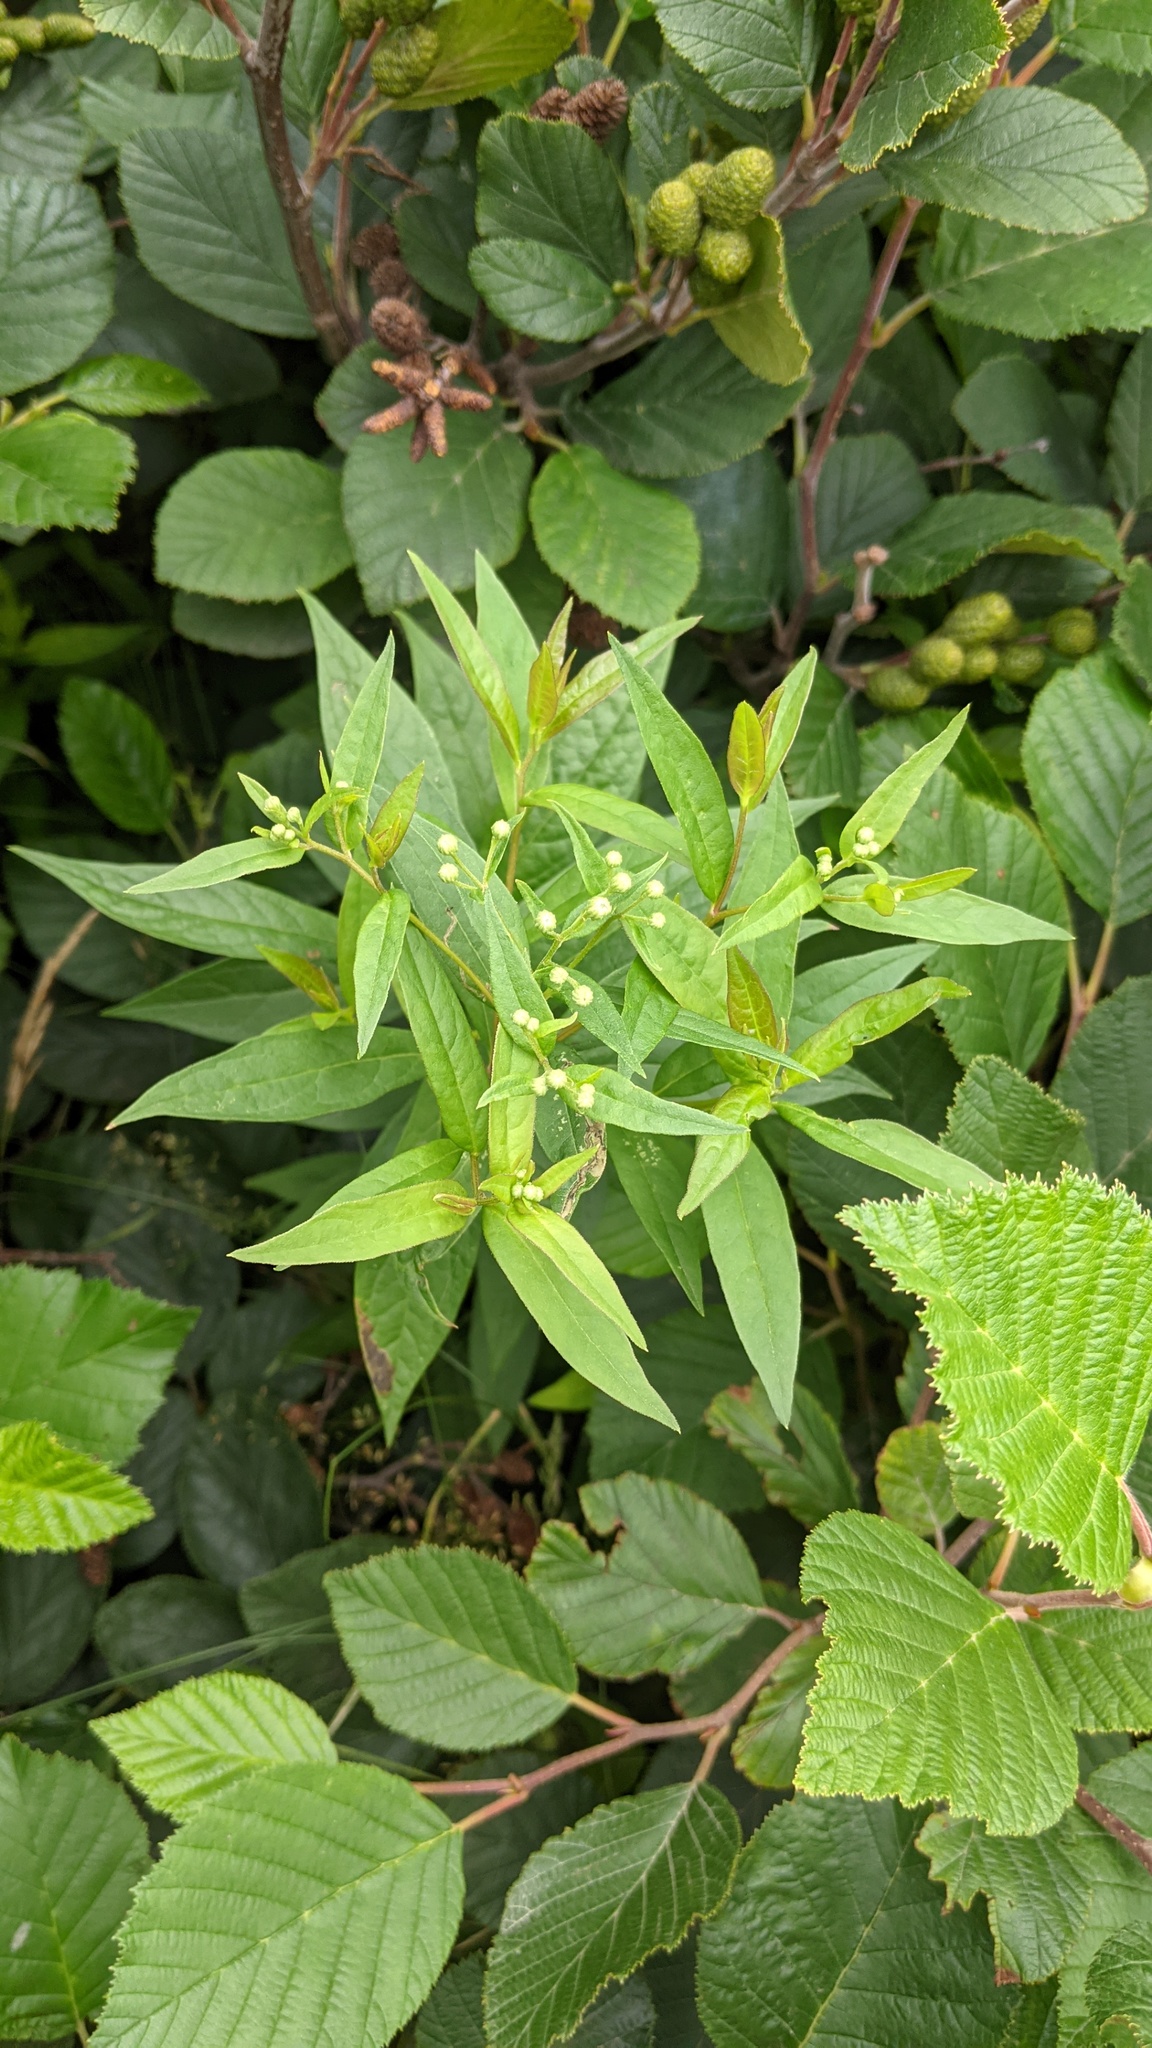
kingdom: Plantae
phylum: Tracheophyta
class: Magnoliopsida
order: Asterales
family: Asteraceae
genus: Doellingeria
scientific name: Doellingeria umbellata
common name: Flat-top white aster
